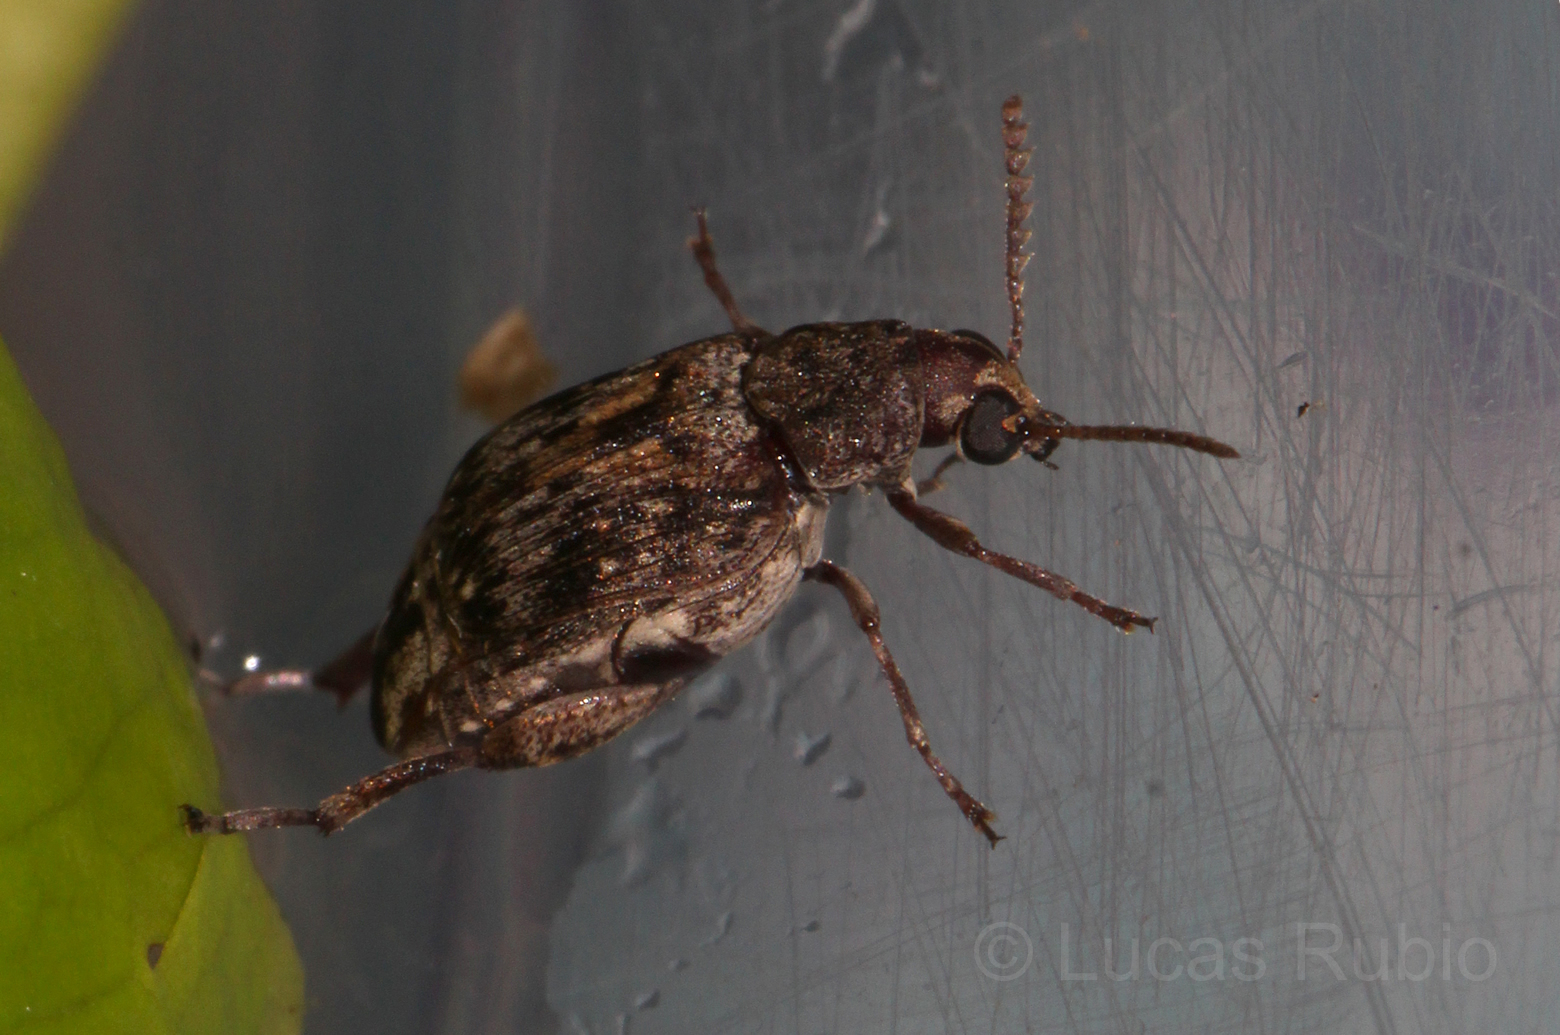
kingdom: Animalia
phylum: Arthropoda
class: Insecta
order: Coleoptera
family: Chrysomelidae
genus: Pseudopachymerina
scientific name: Pseudopachymerina spinipes
